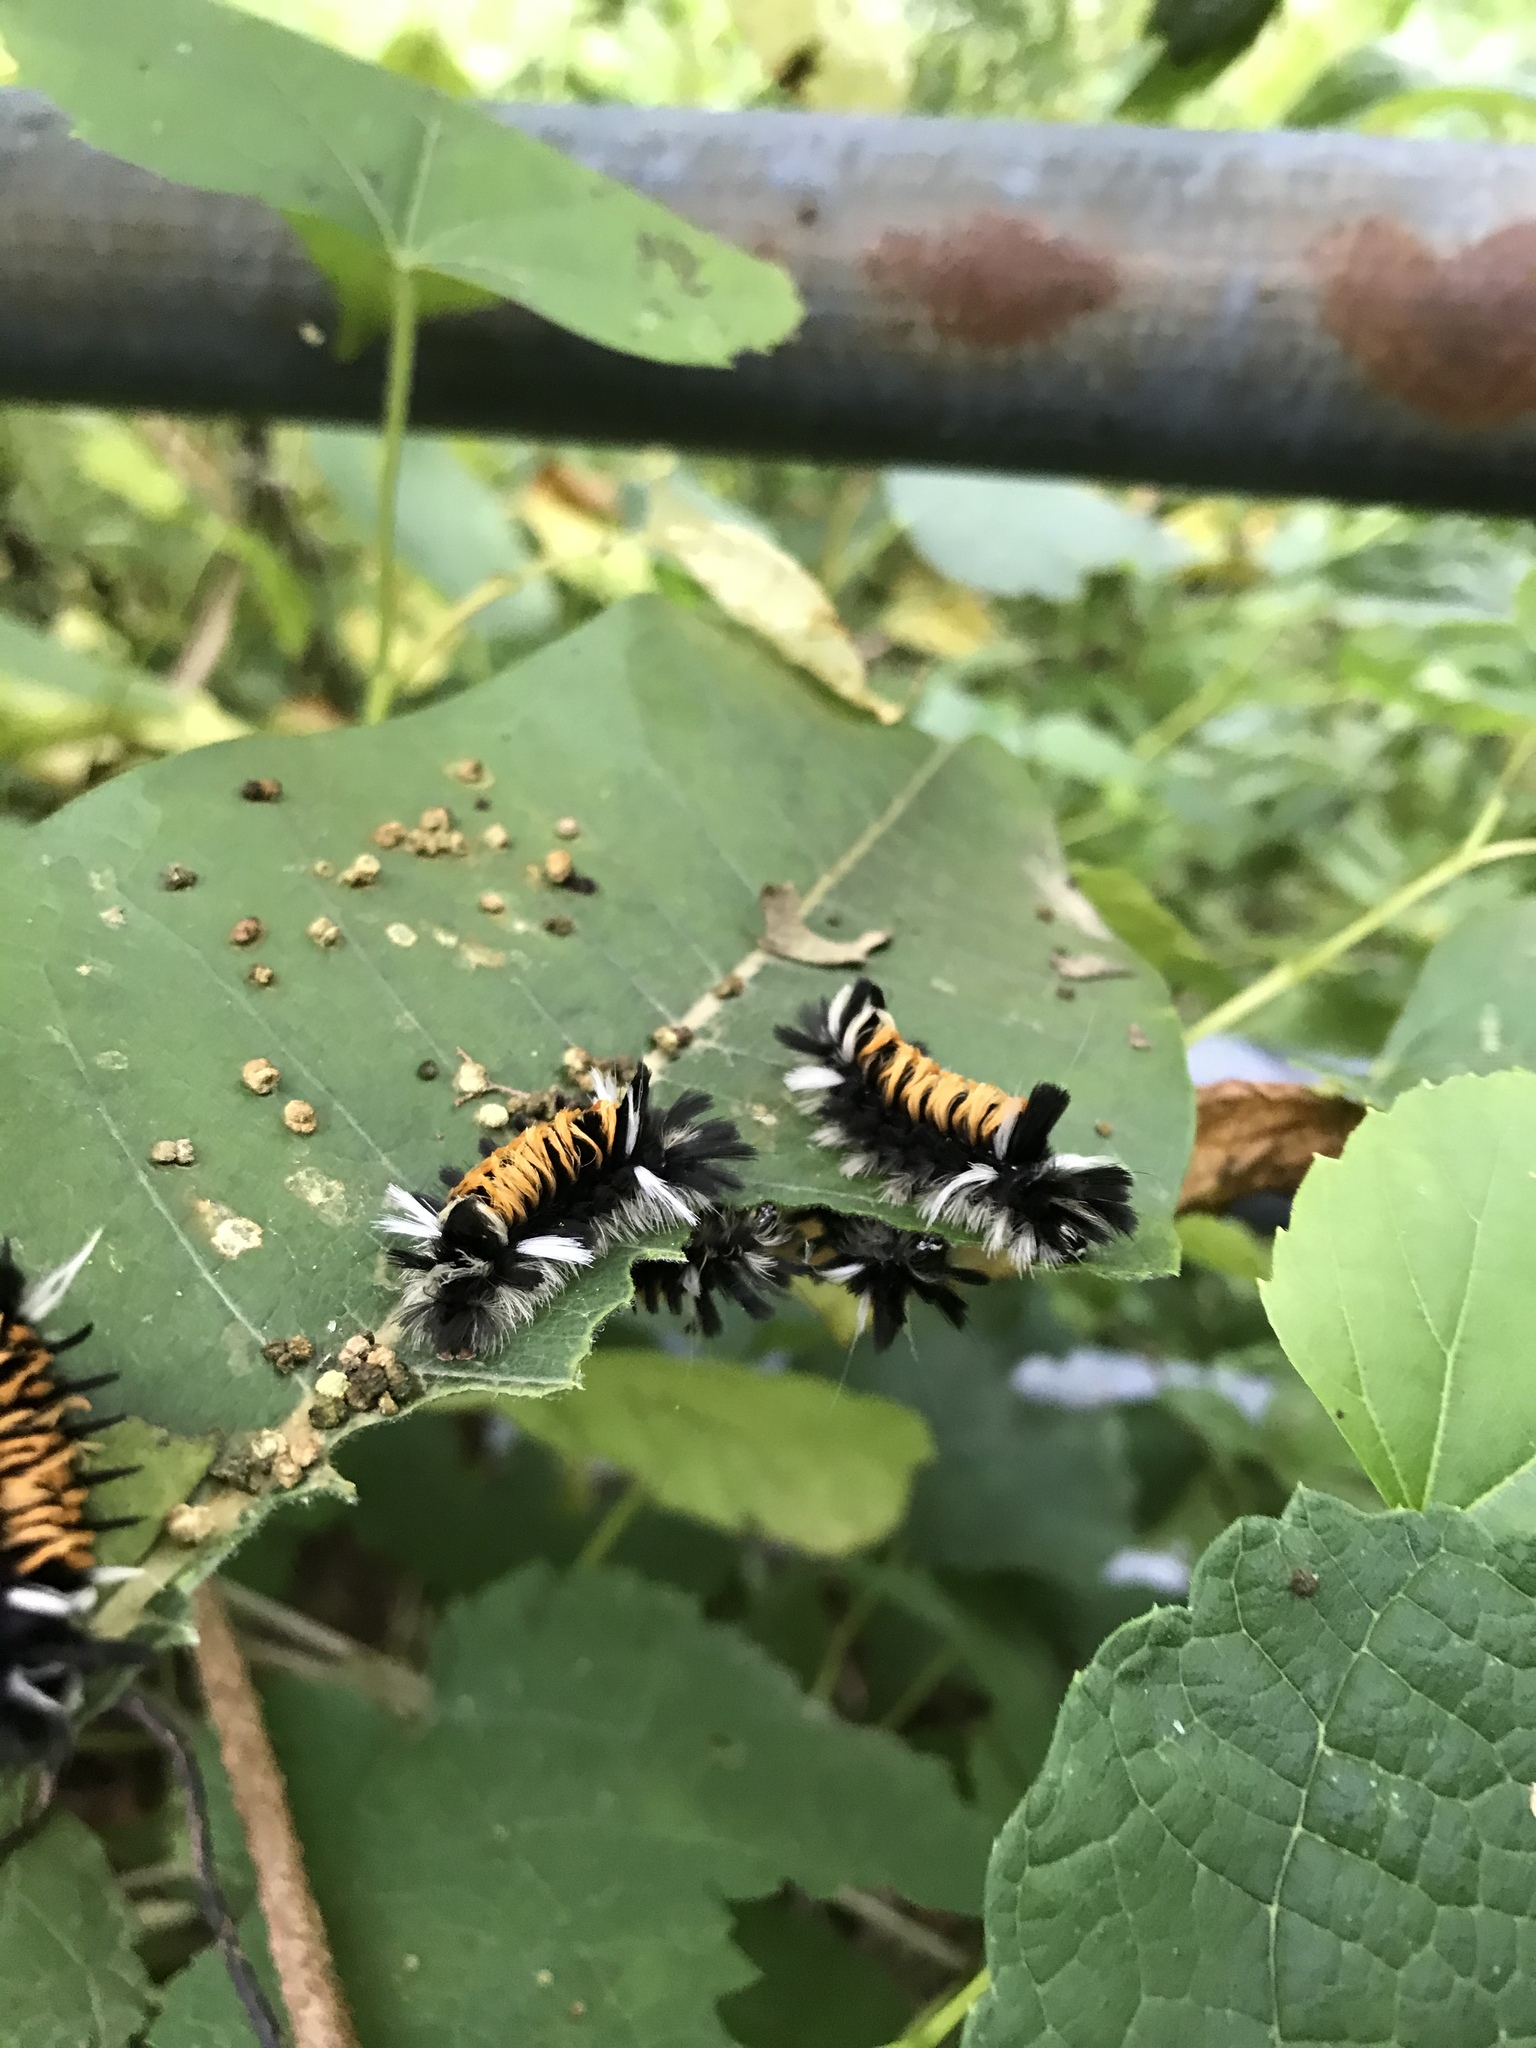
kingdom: Animalia
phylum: Arthropoda
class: Insecta
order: Lepidoptera
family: Erebidae
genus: Euchaetes
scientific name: Euchaetes egle
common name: Milkweed tussock moth
